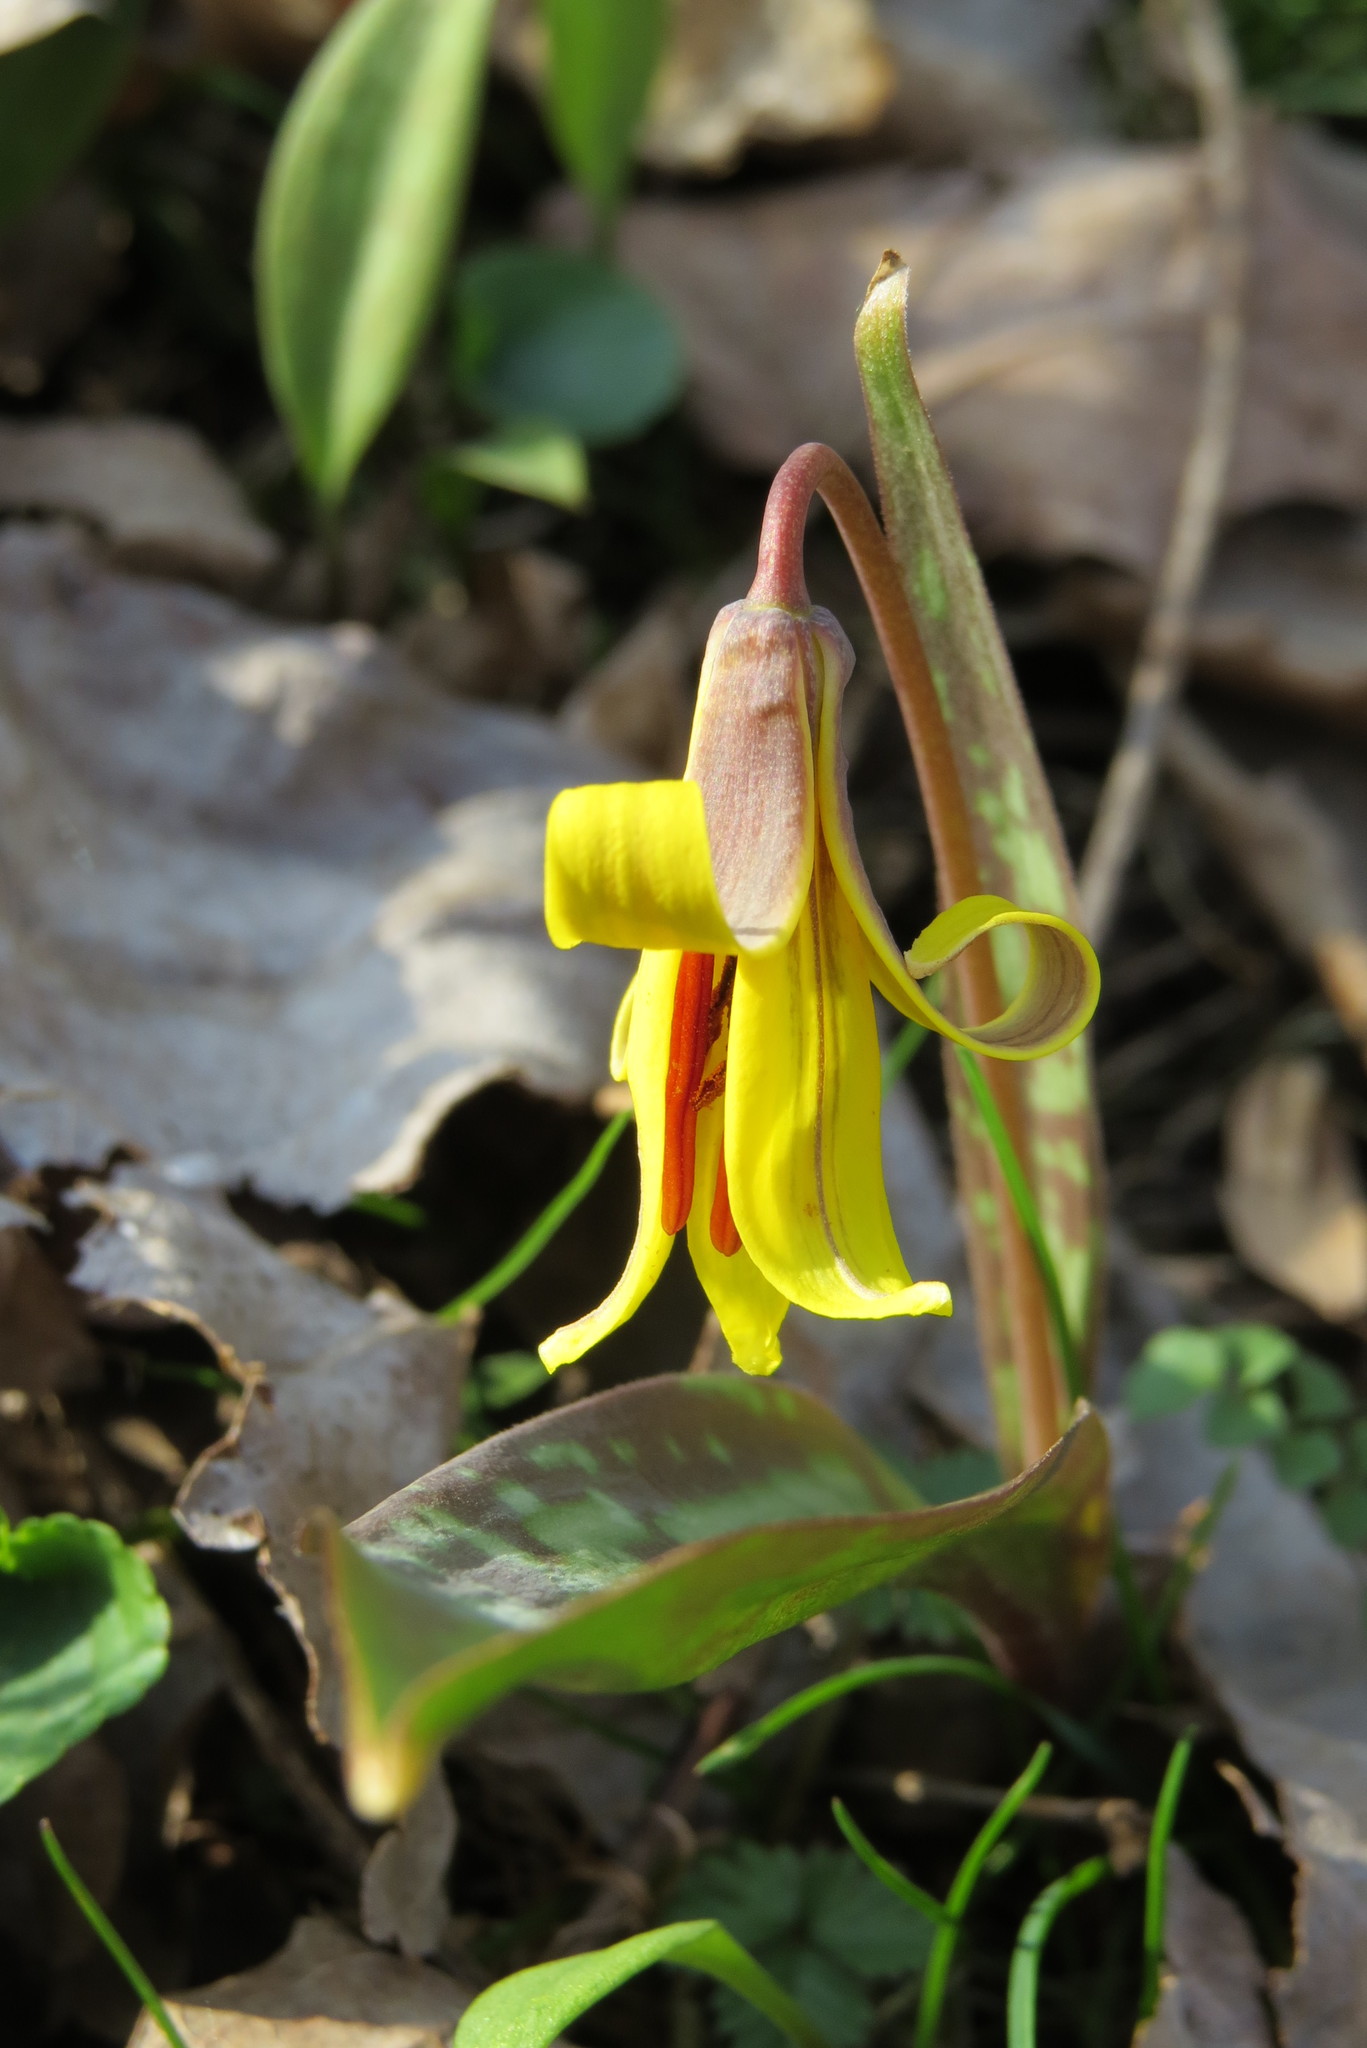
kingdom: Plantae
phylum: Tracheophyta
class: Liliopsida
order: Liliales
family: Liliaceae
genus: Erythronium
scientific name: Erythronium americanum
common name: Yellow adder's-tongue
